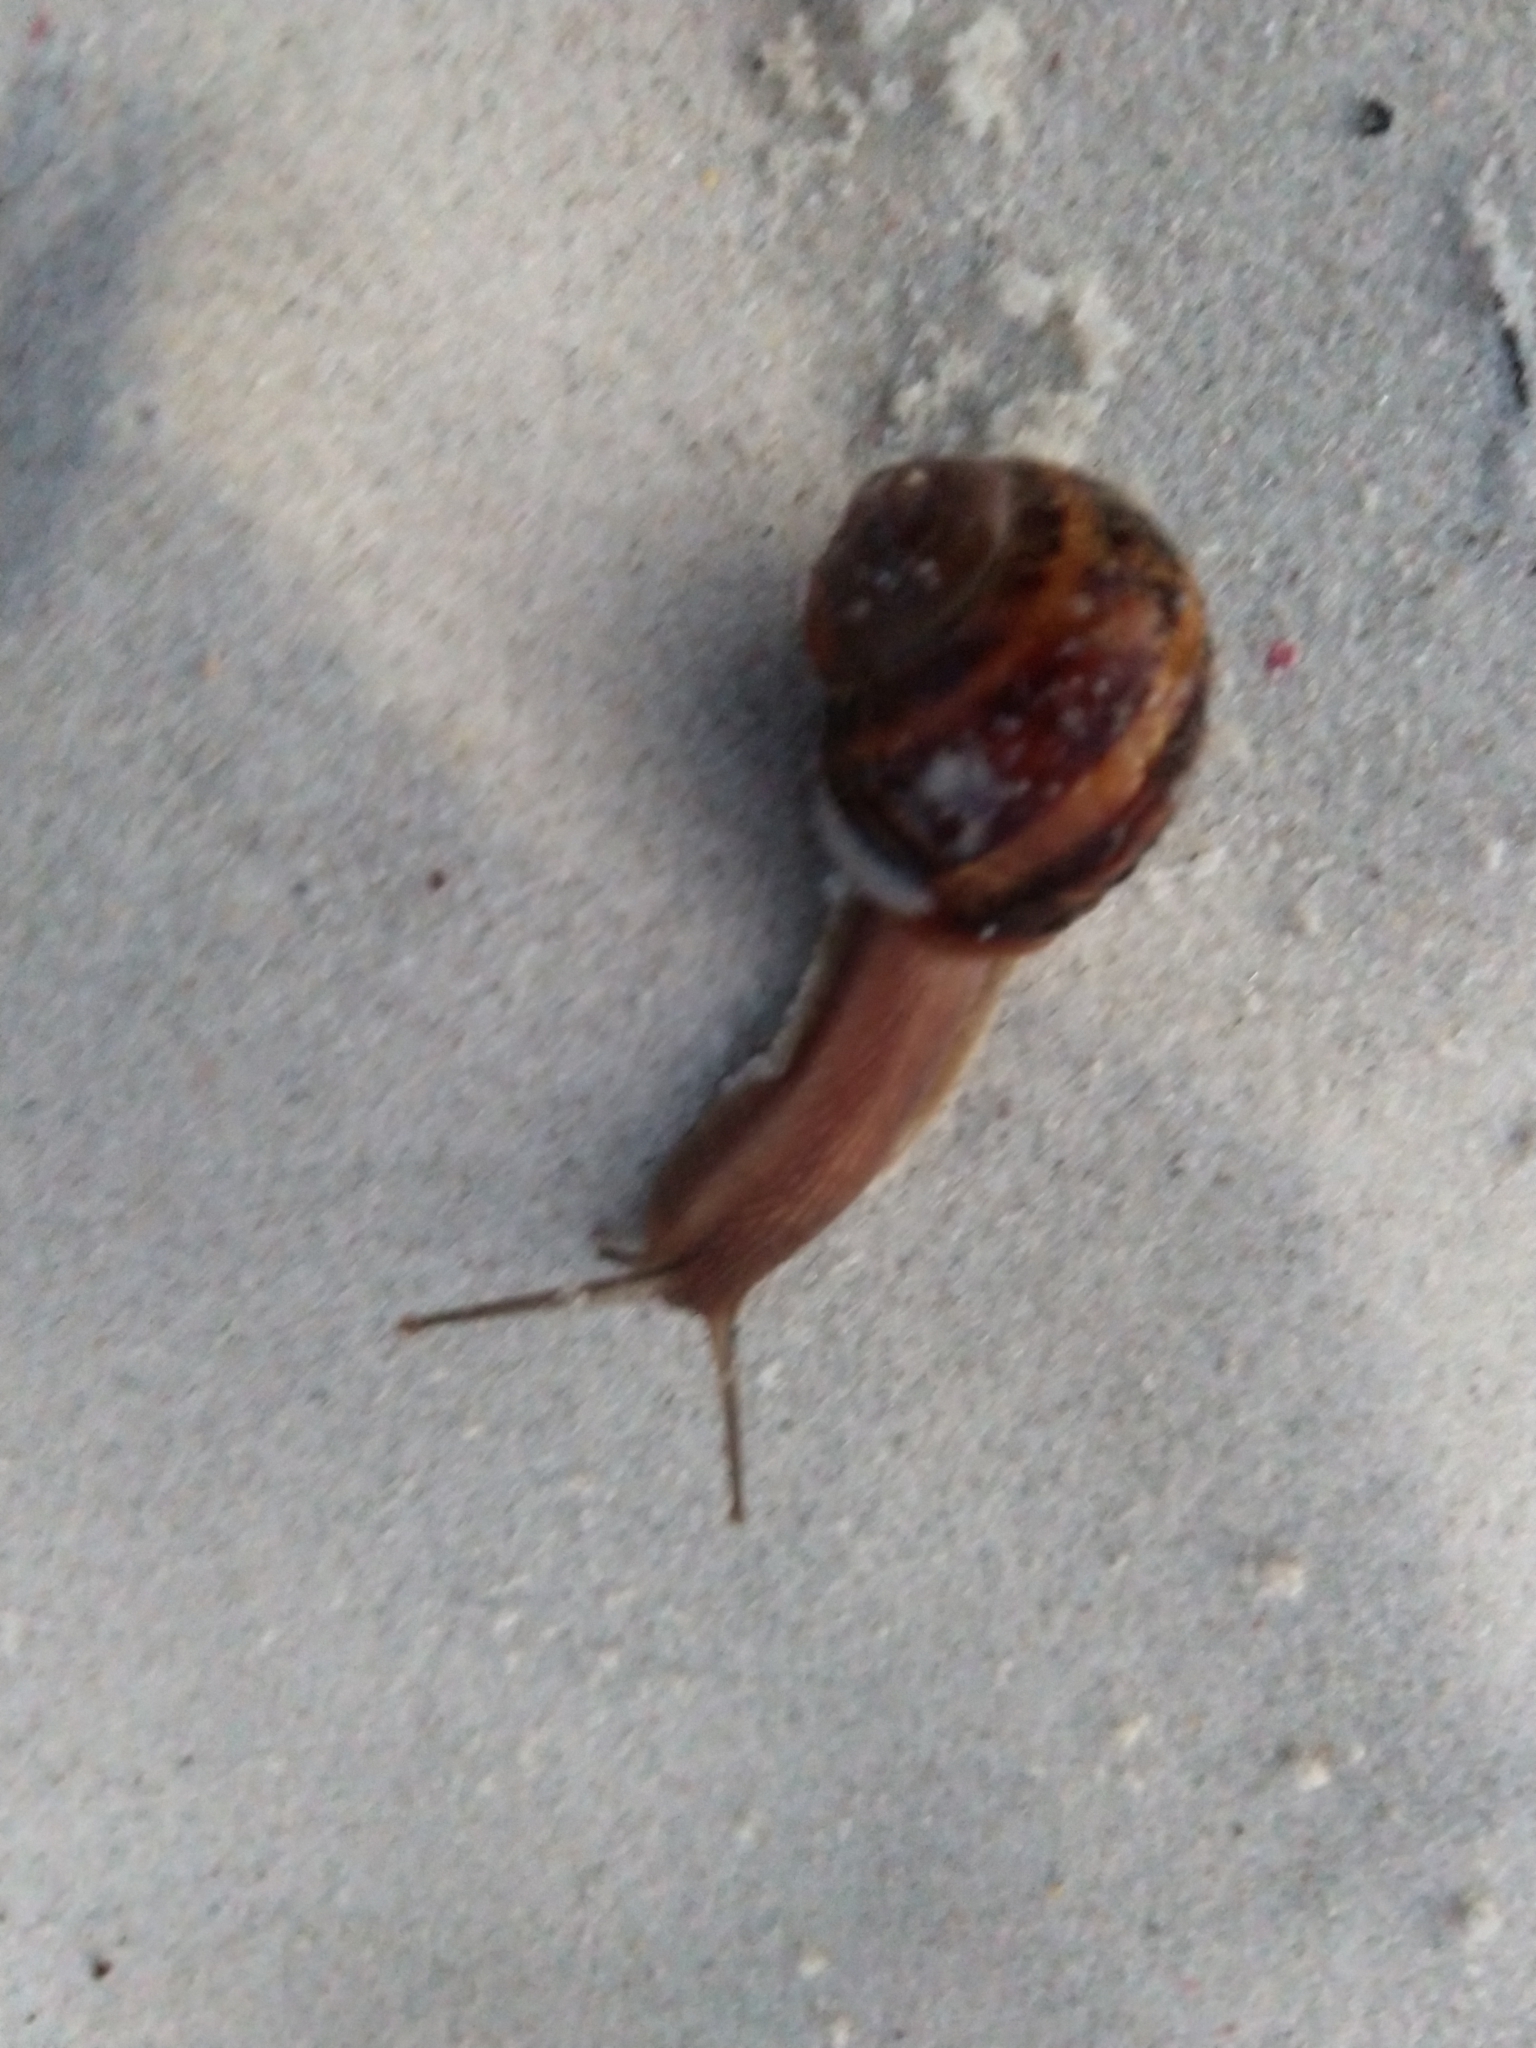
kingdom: Animalia
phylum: Mollusca
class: Gastropoda
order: Stylommatophora
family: Helicidae
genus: Cornu
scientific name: Cornu aspersum
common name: Brown garden snail
